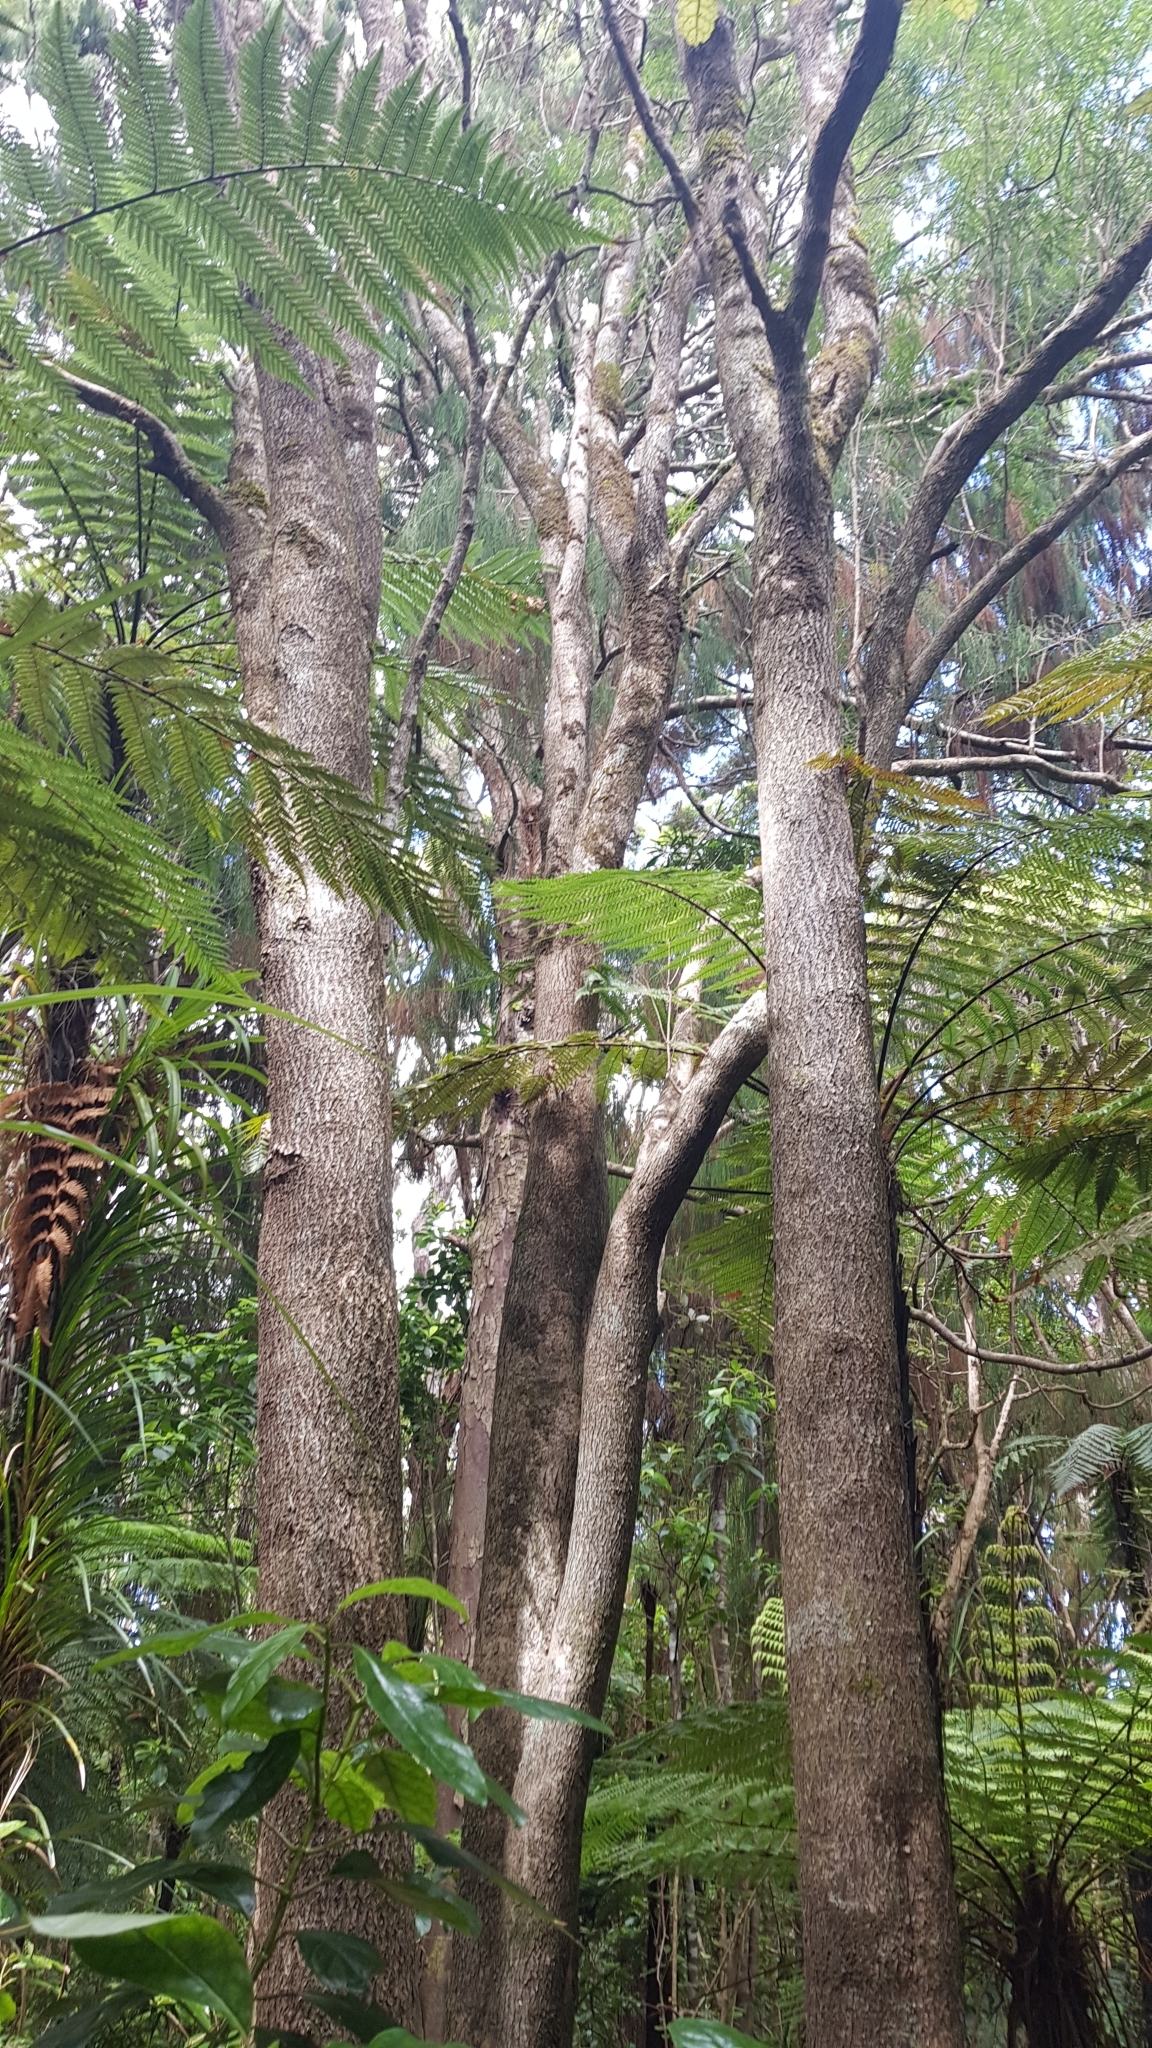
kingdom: Plantae
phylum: Tracheophyta
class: Magnoliopsida
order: Lamiales
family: Oleaceae
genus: Nestegis
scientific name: Nestegis montana
